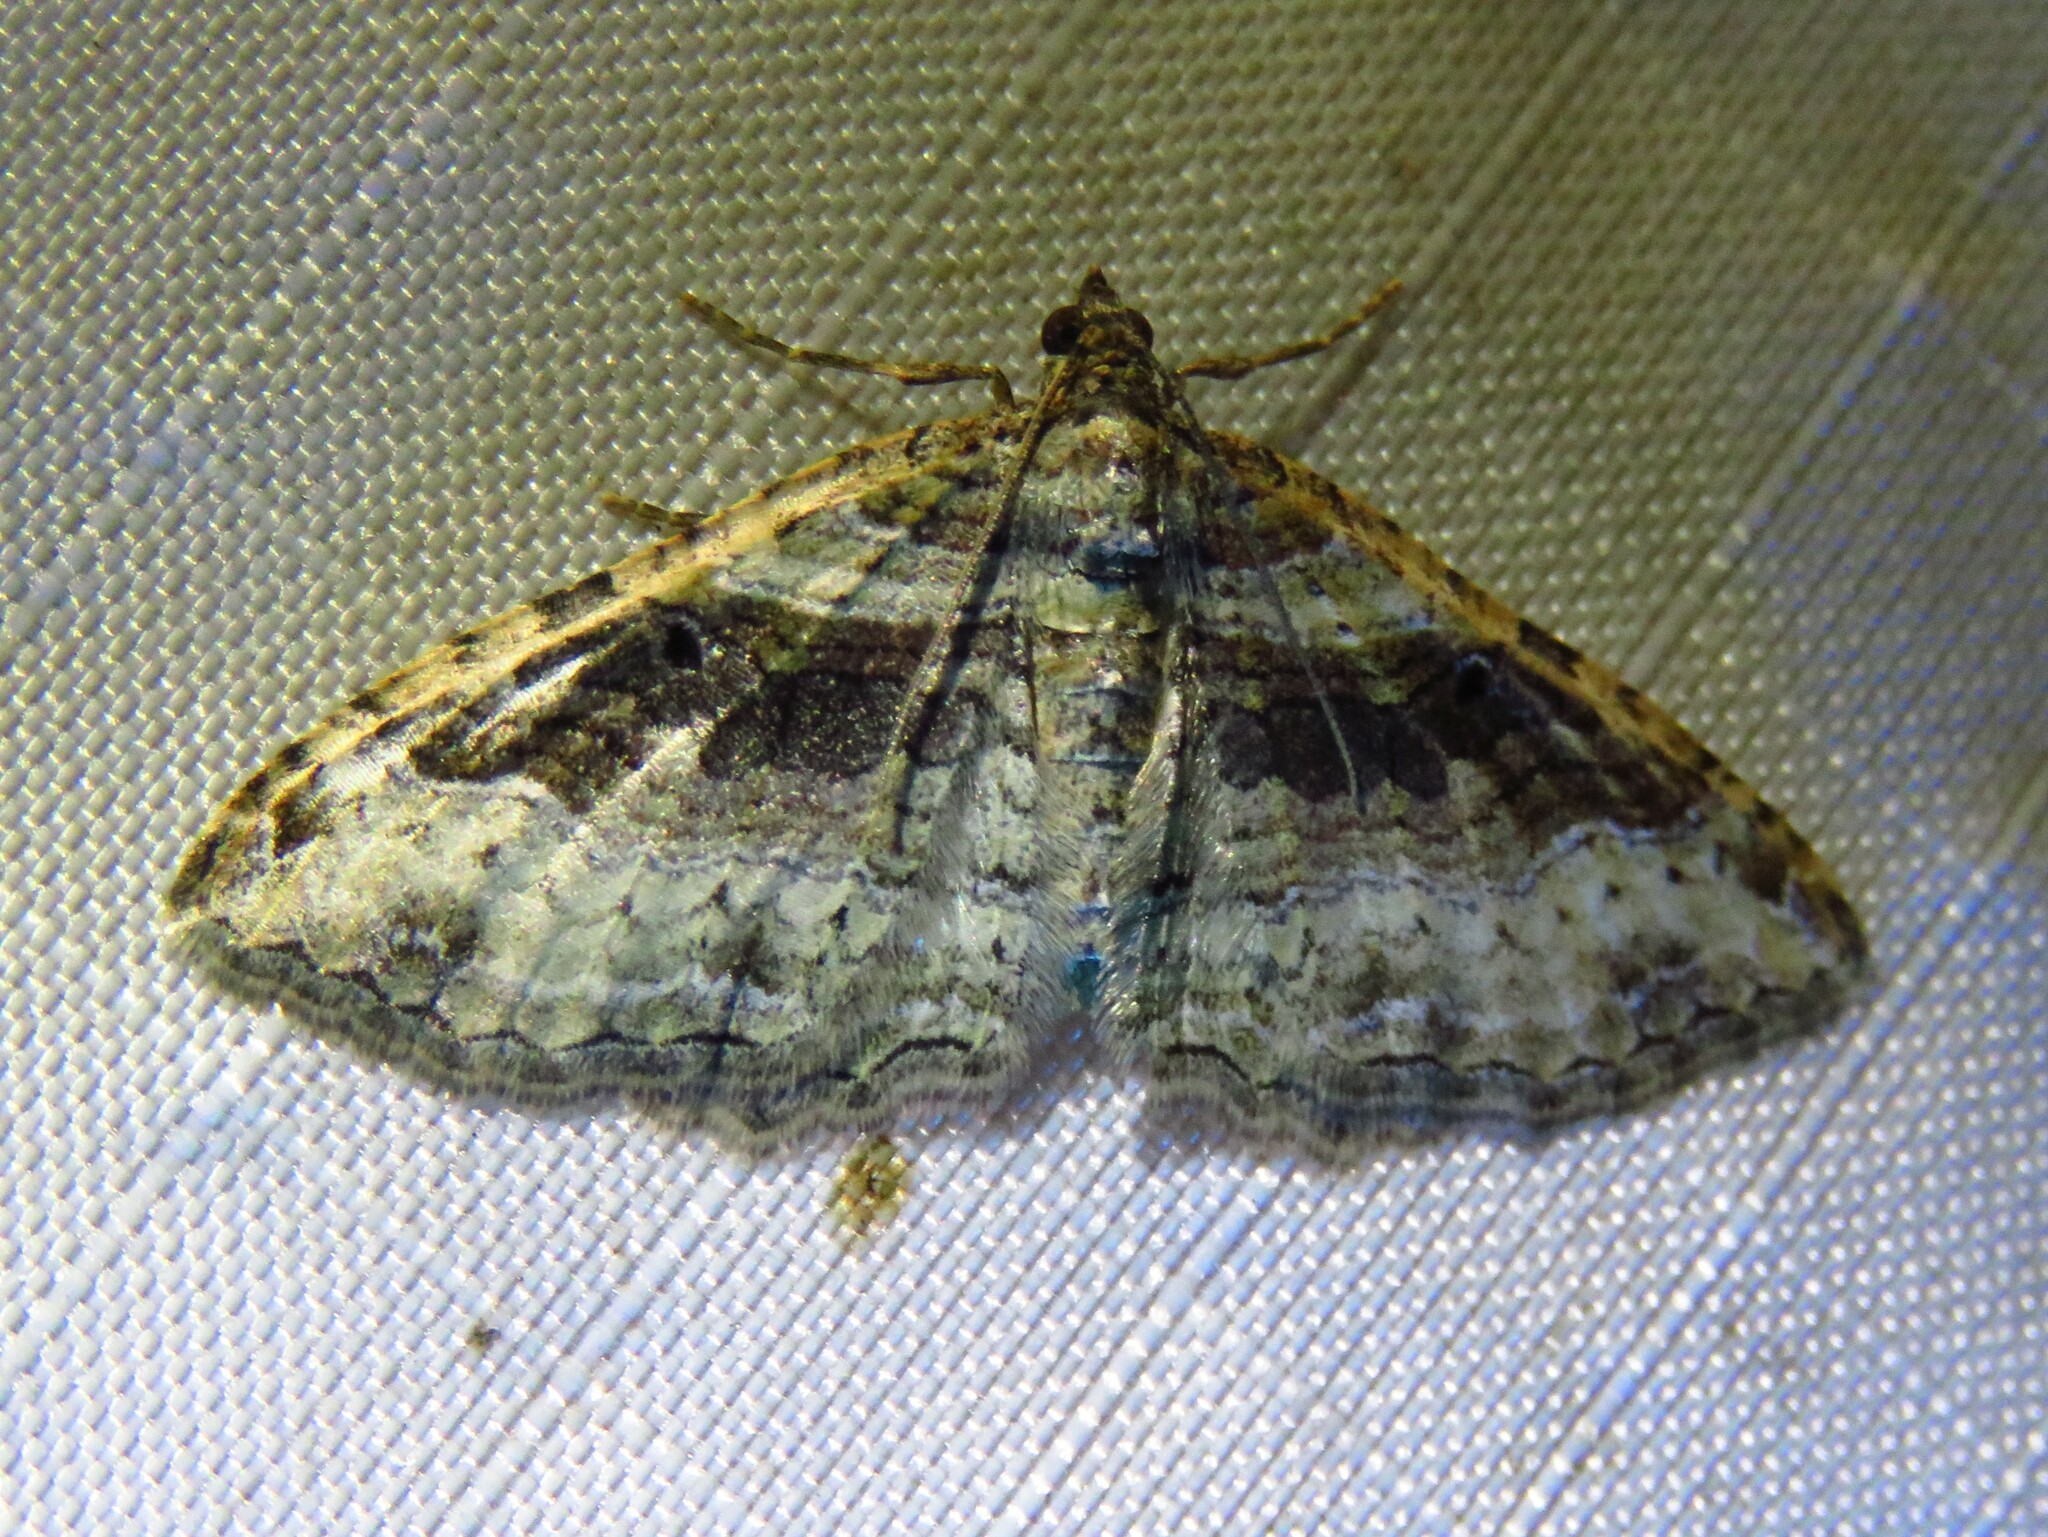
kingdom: Animalia
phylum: Arthropoda
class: Insecta
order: Lepidoptera
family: Geometridae
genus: Costaconvexa
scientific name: Costaconvexa centrostrigaria
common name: Bent-line carpet
